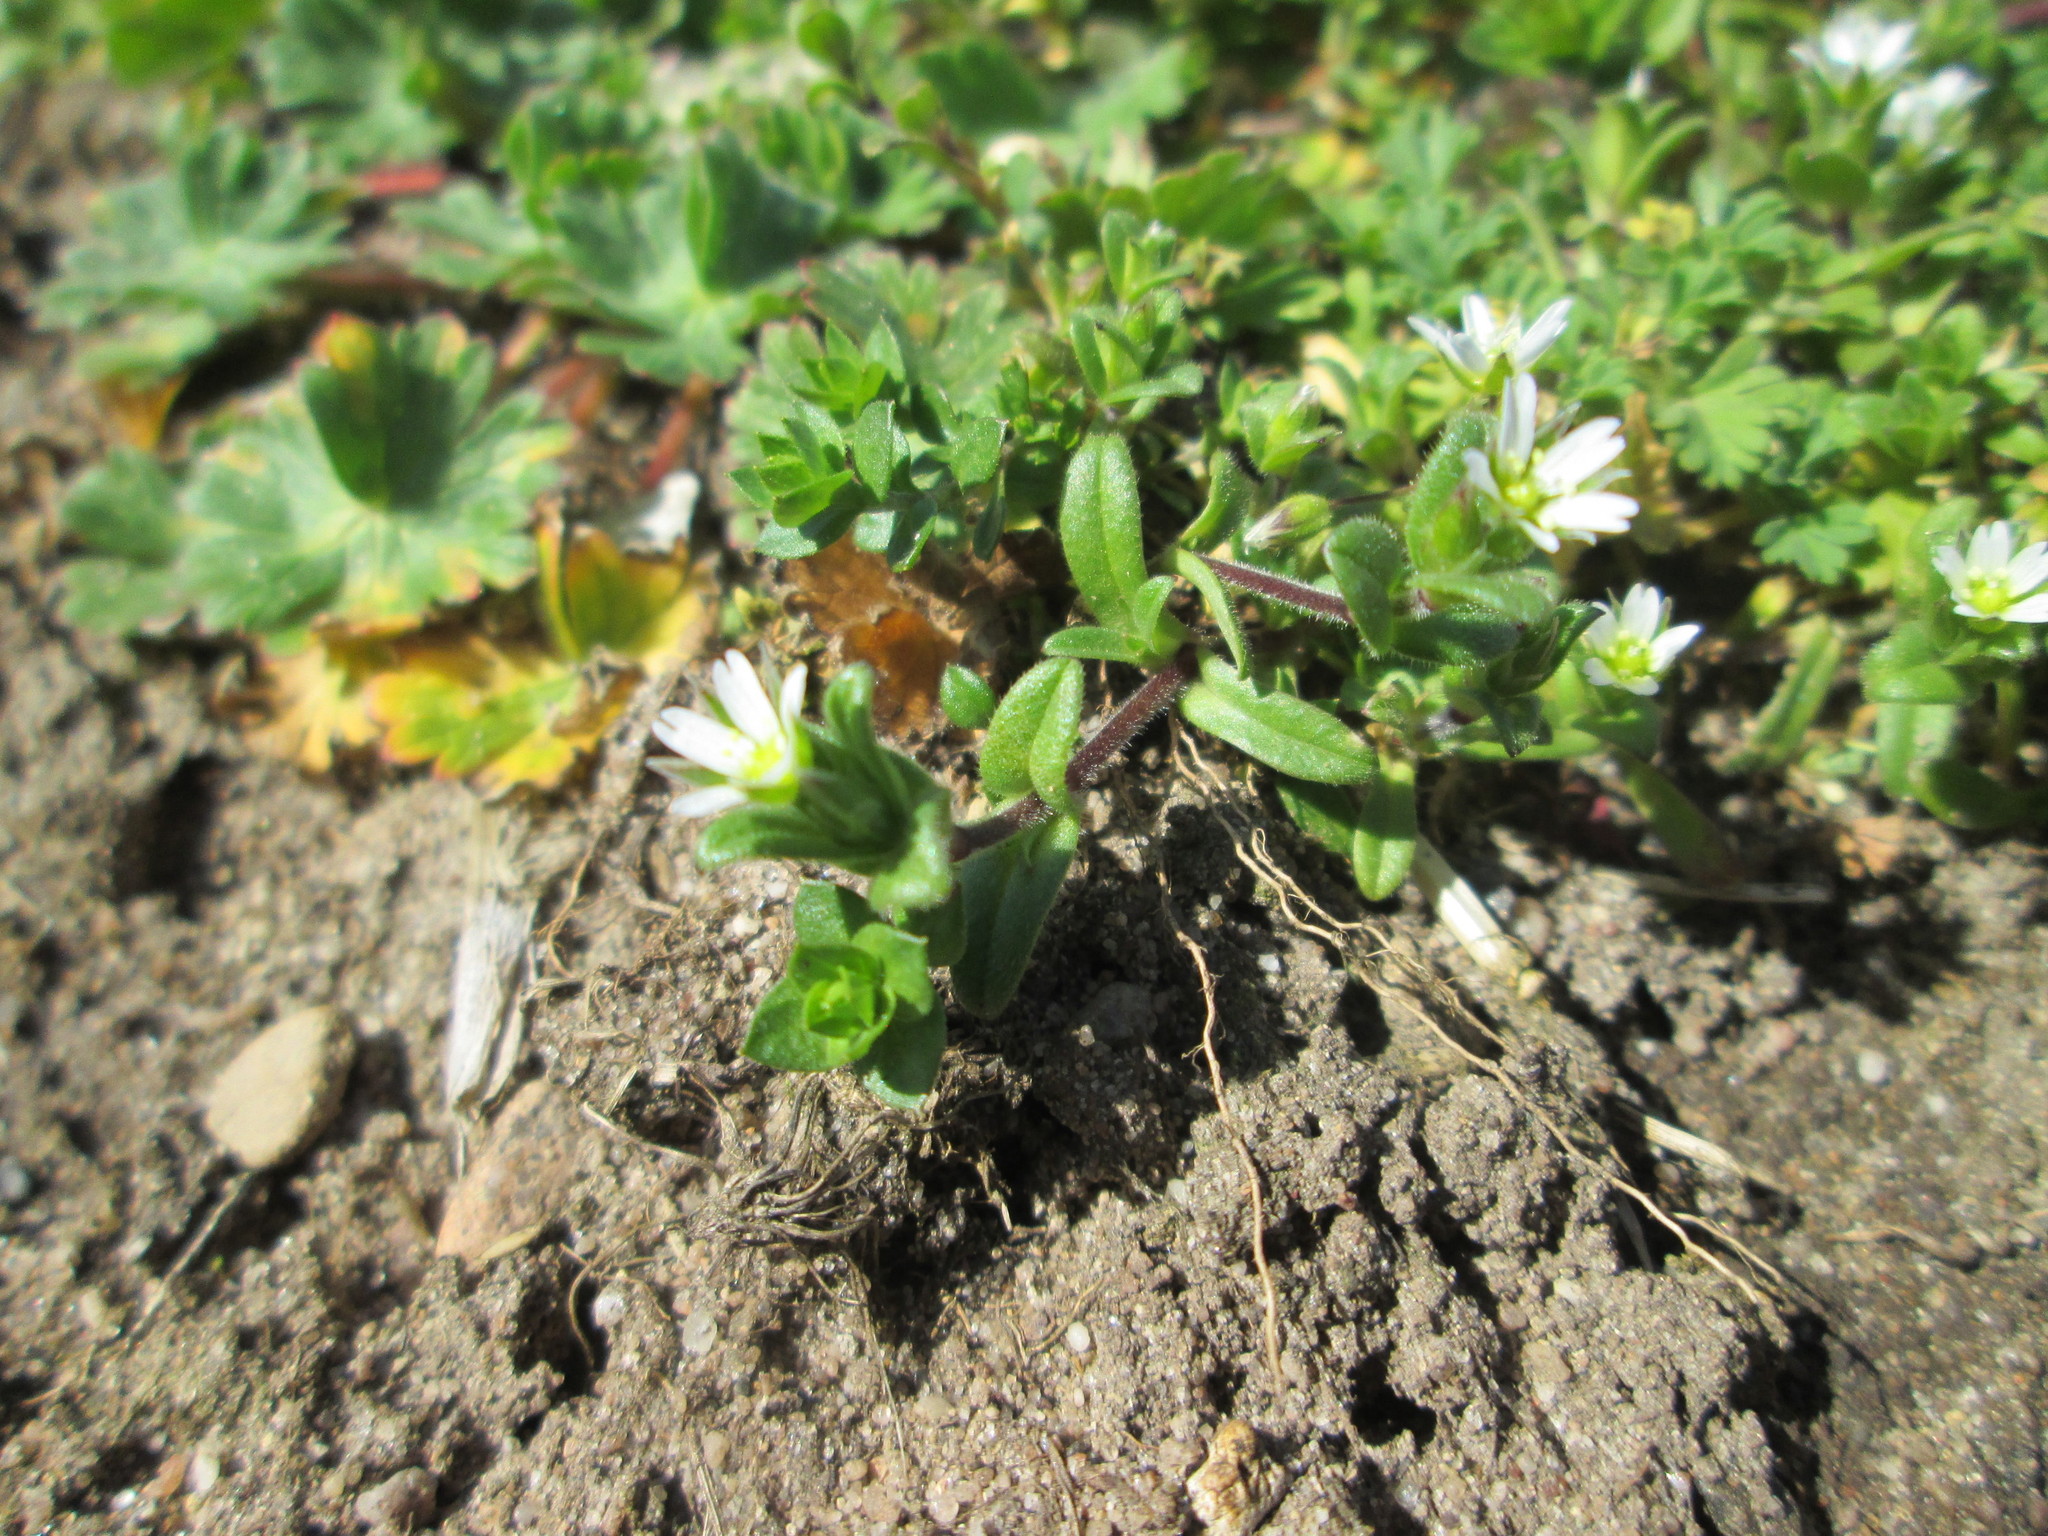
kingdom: Plantae
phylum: Tracheophyta
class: Magnoliopsida
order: Caryophyllales
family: Caryophyllaceae
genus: Cerastium
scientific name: Cerastium semidecandrum
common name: Little mouse-ear
